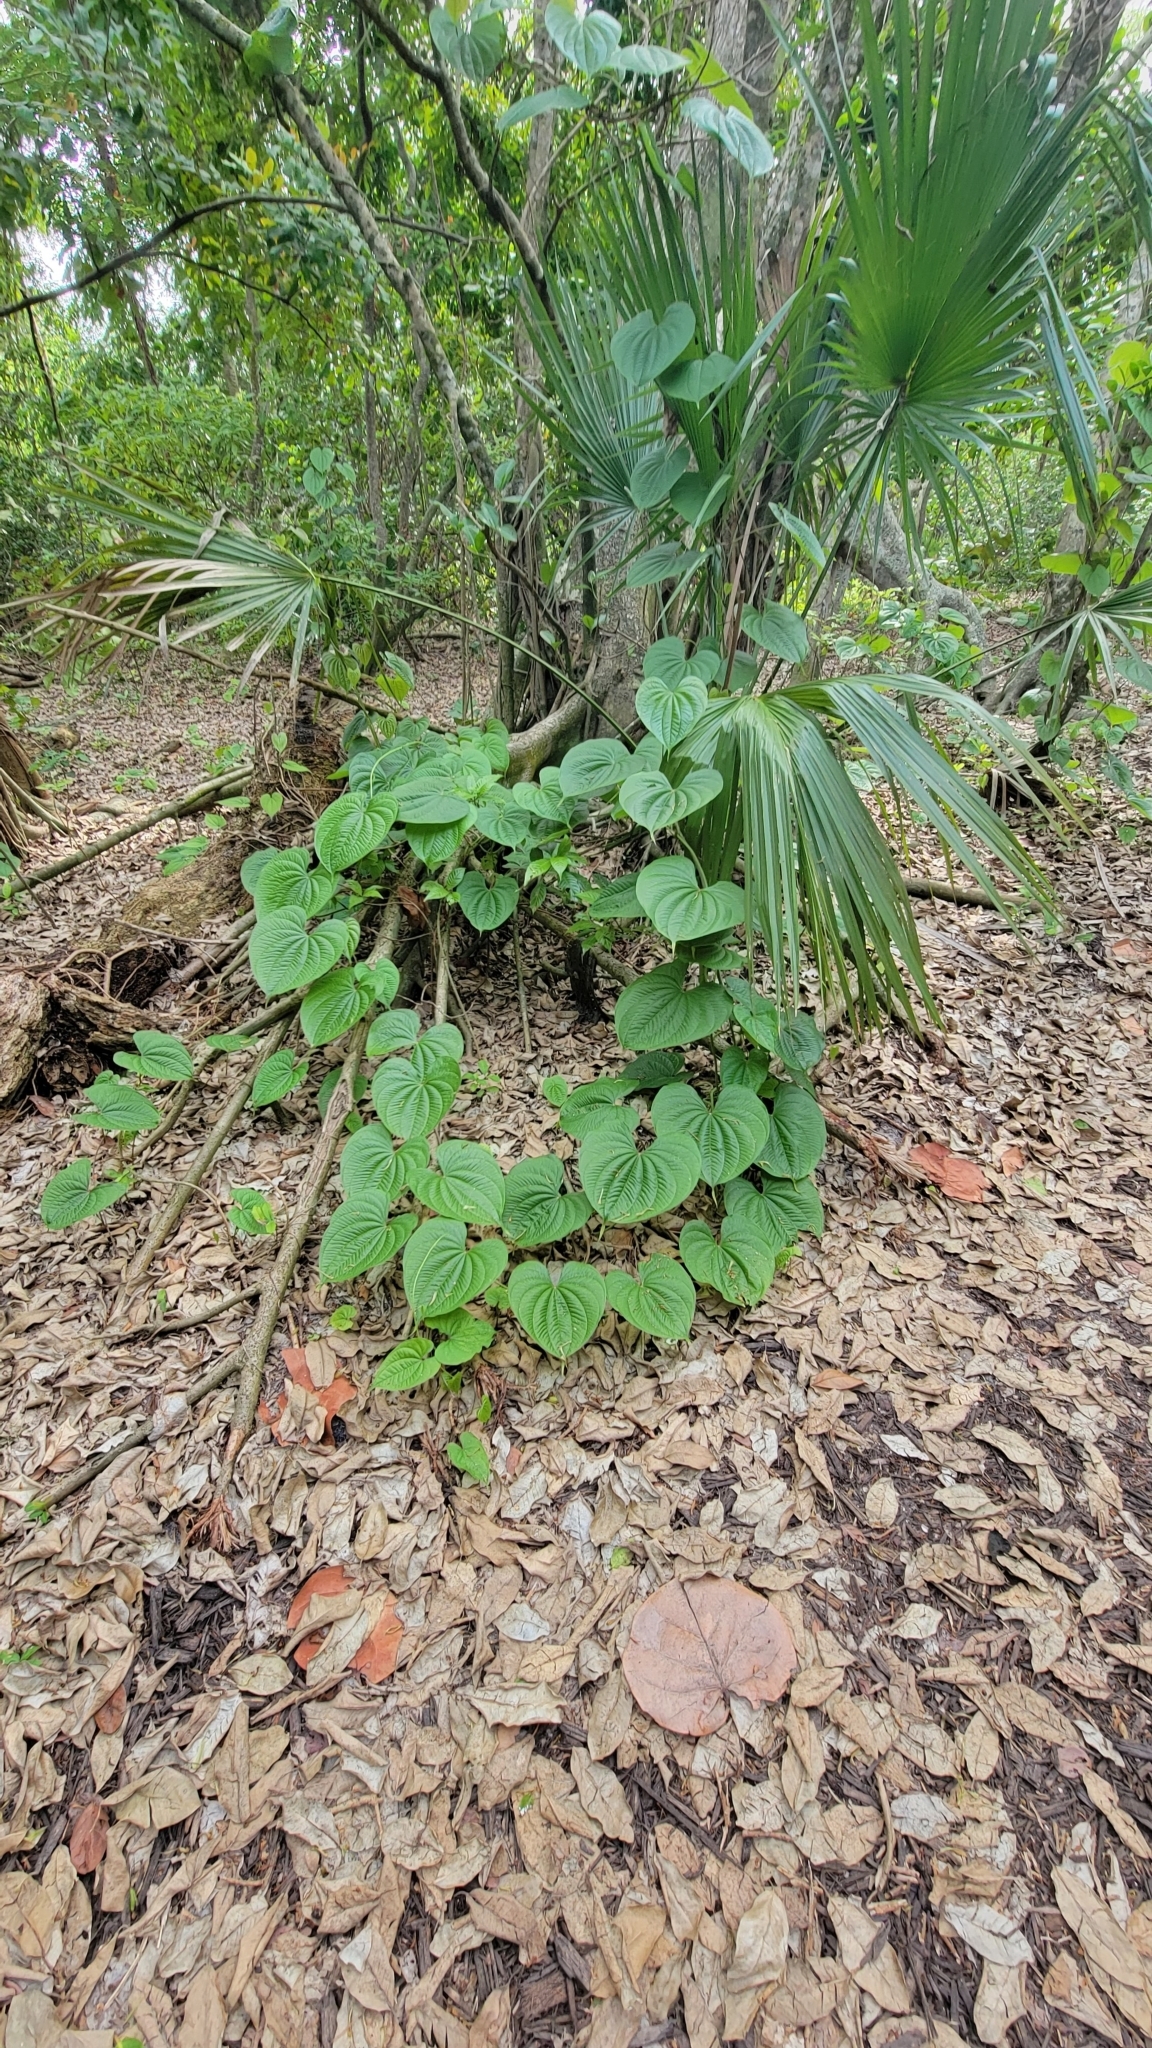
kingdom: Plantae
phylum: Tracheophyta
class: Liliopsida
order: Dioscoreales
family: Dioscoreaceae
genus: Dioscorea
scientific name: Dioscorea bulbifera
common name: Air yam
